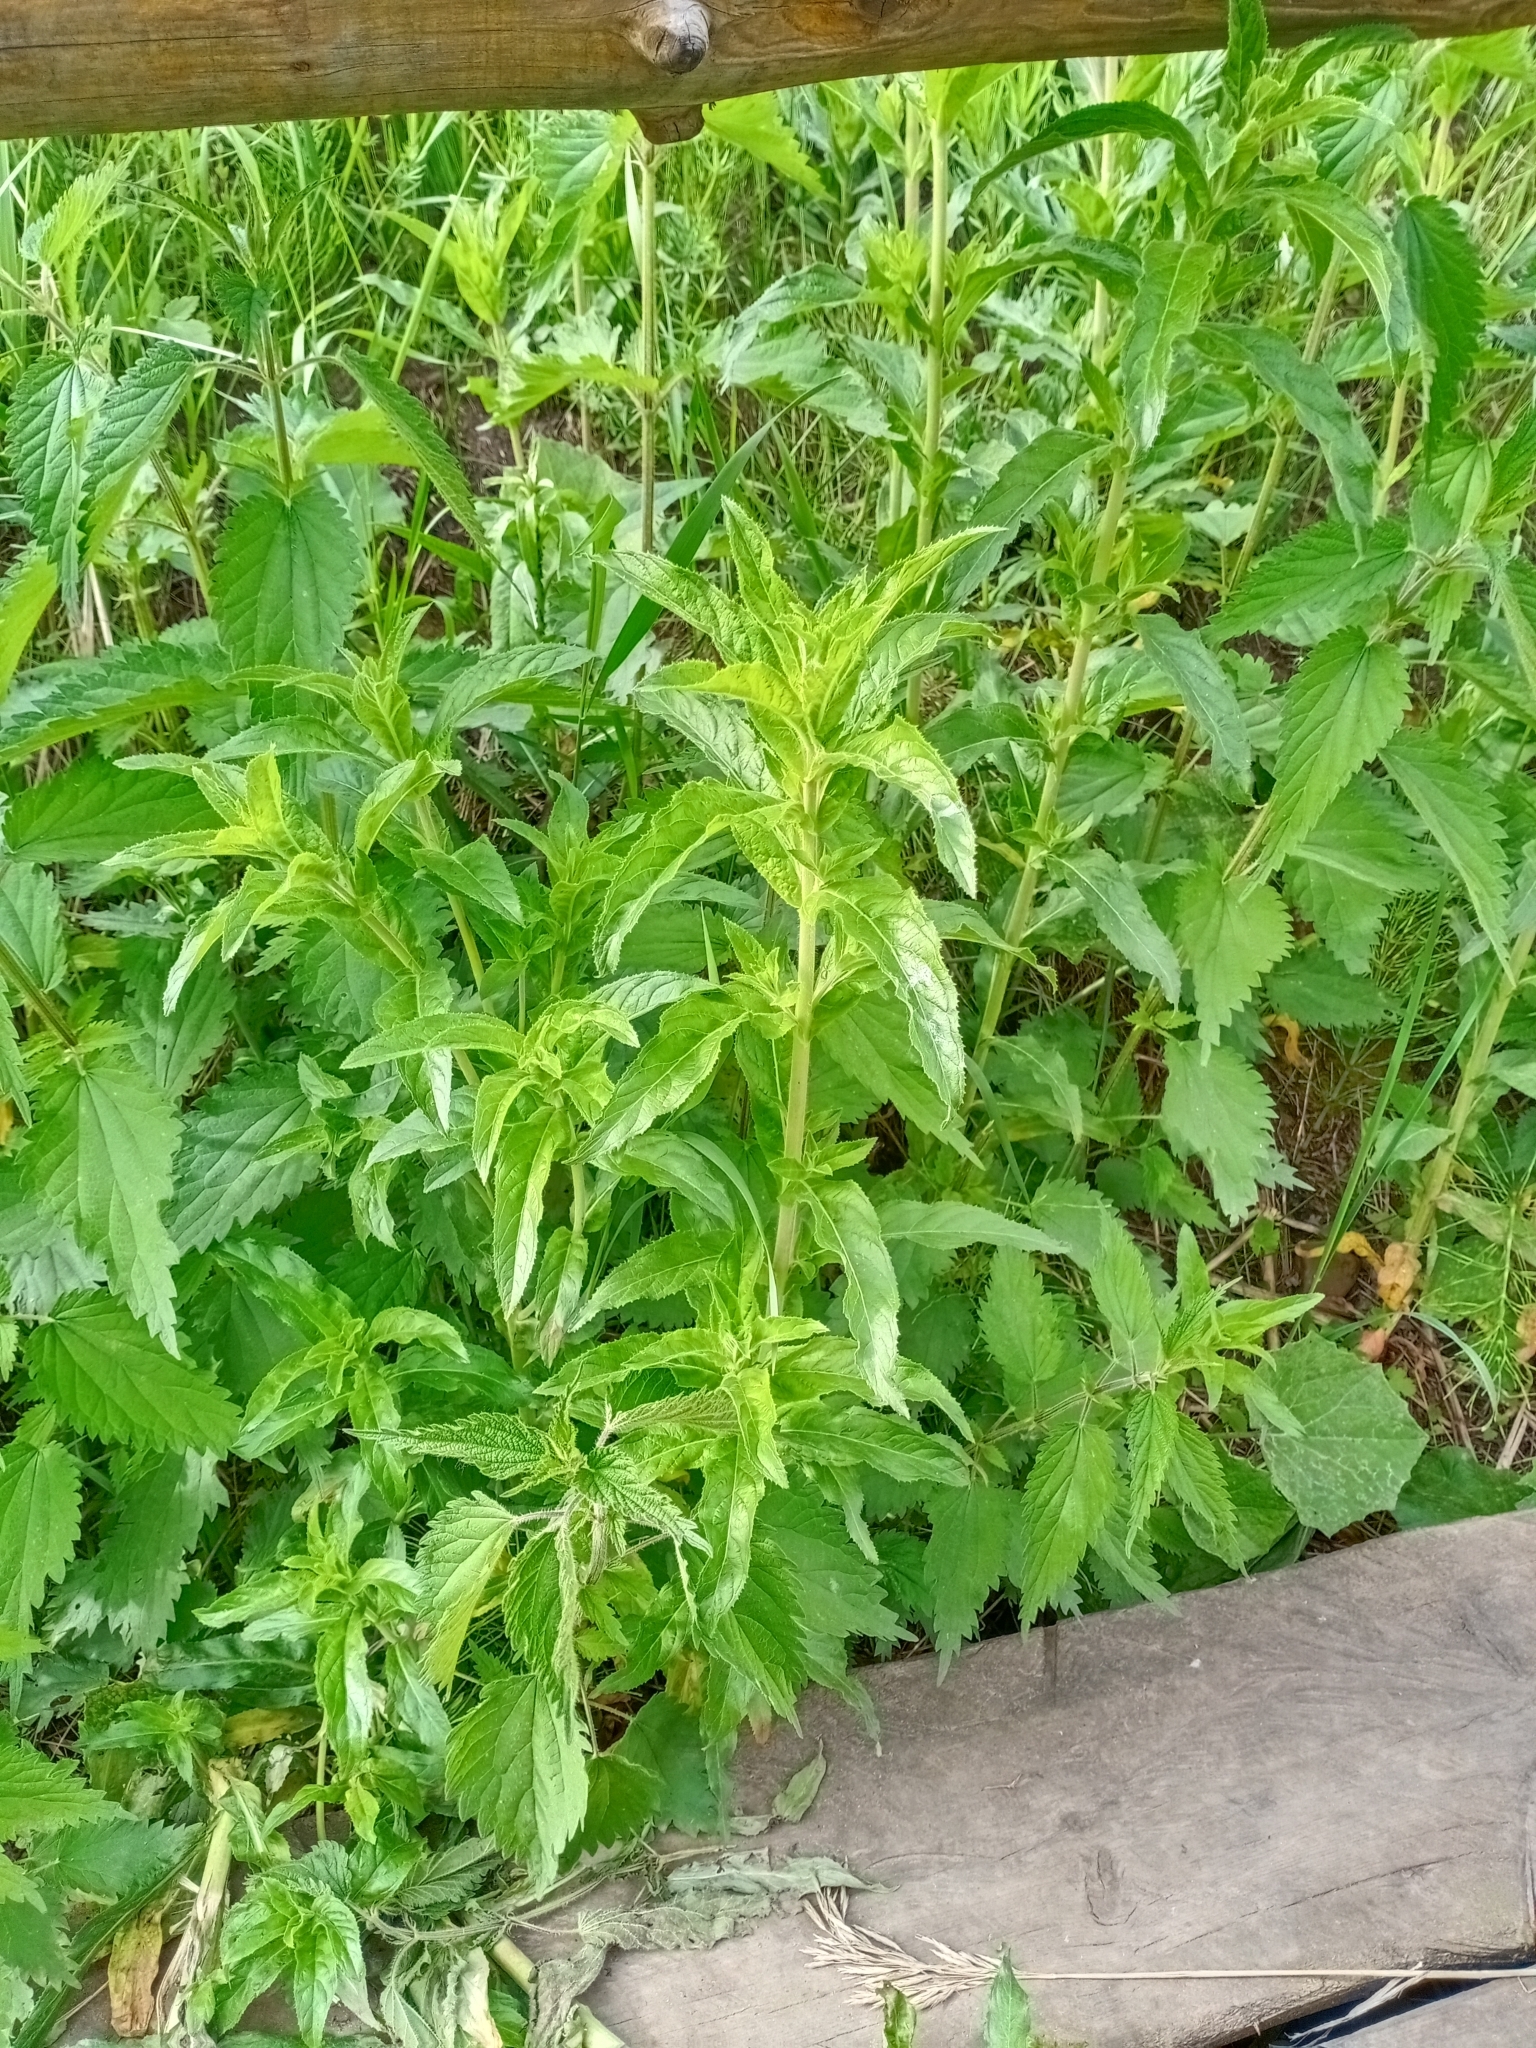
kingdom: Plantae
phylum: Tracheophyta
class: Magnoliopsida
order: Myrtales
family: Onagraceae
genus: Epilobium
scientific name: Epilobium hirsutum
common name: Great willowherb
